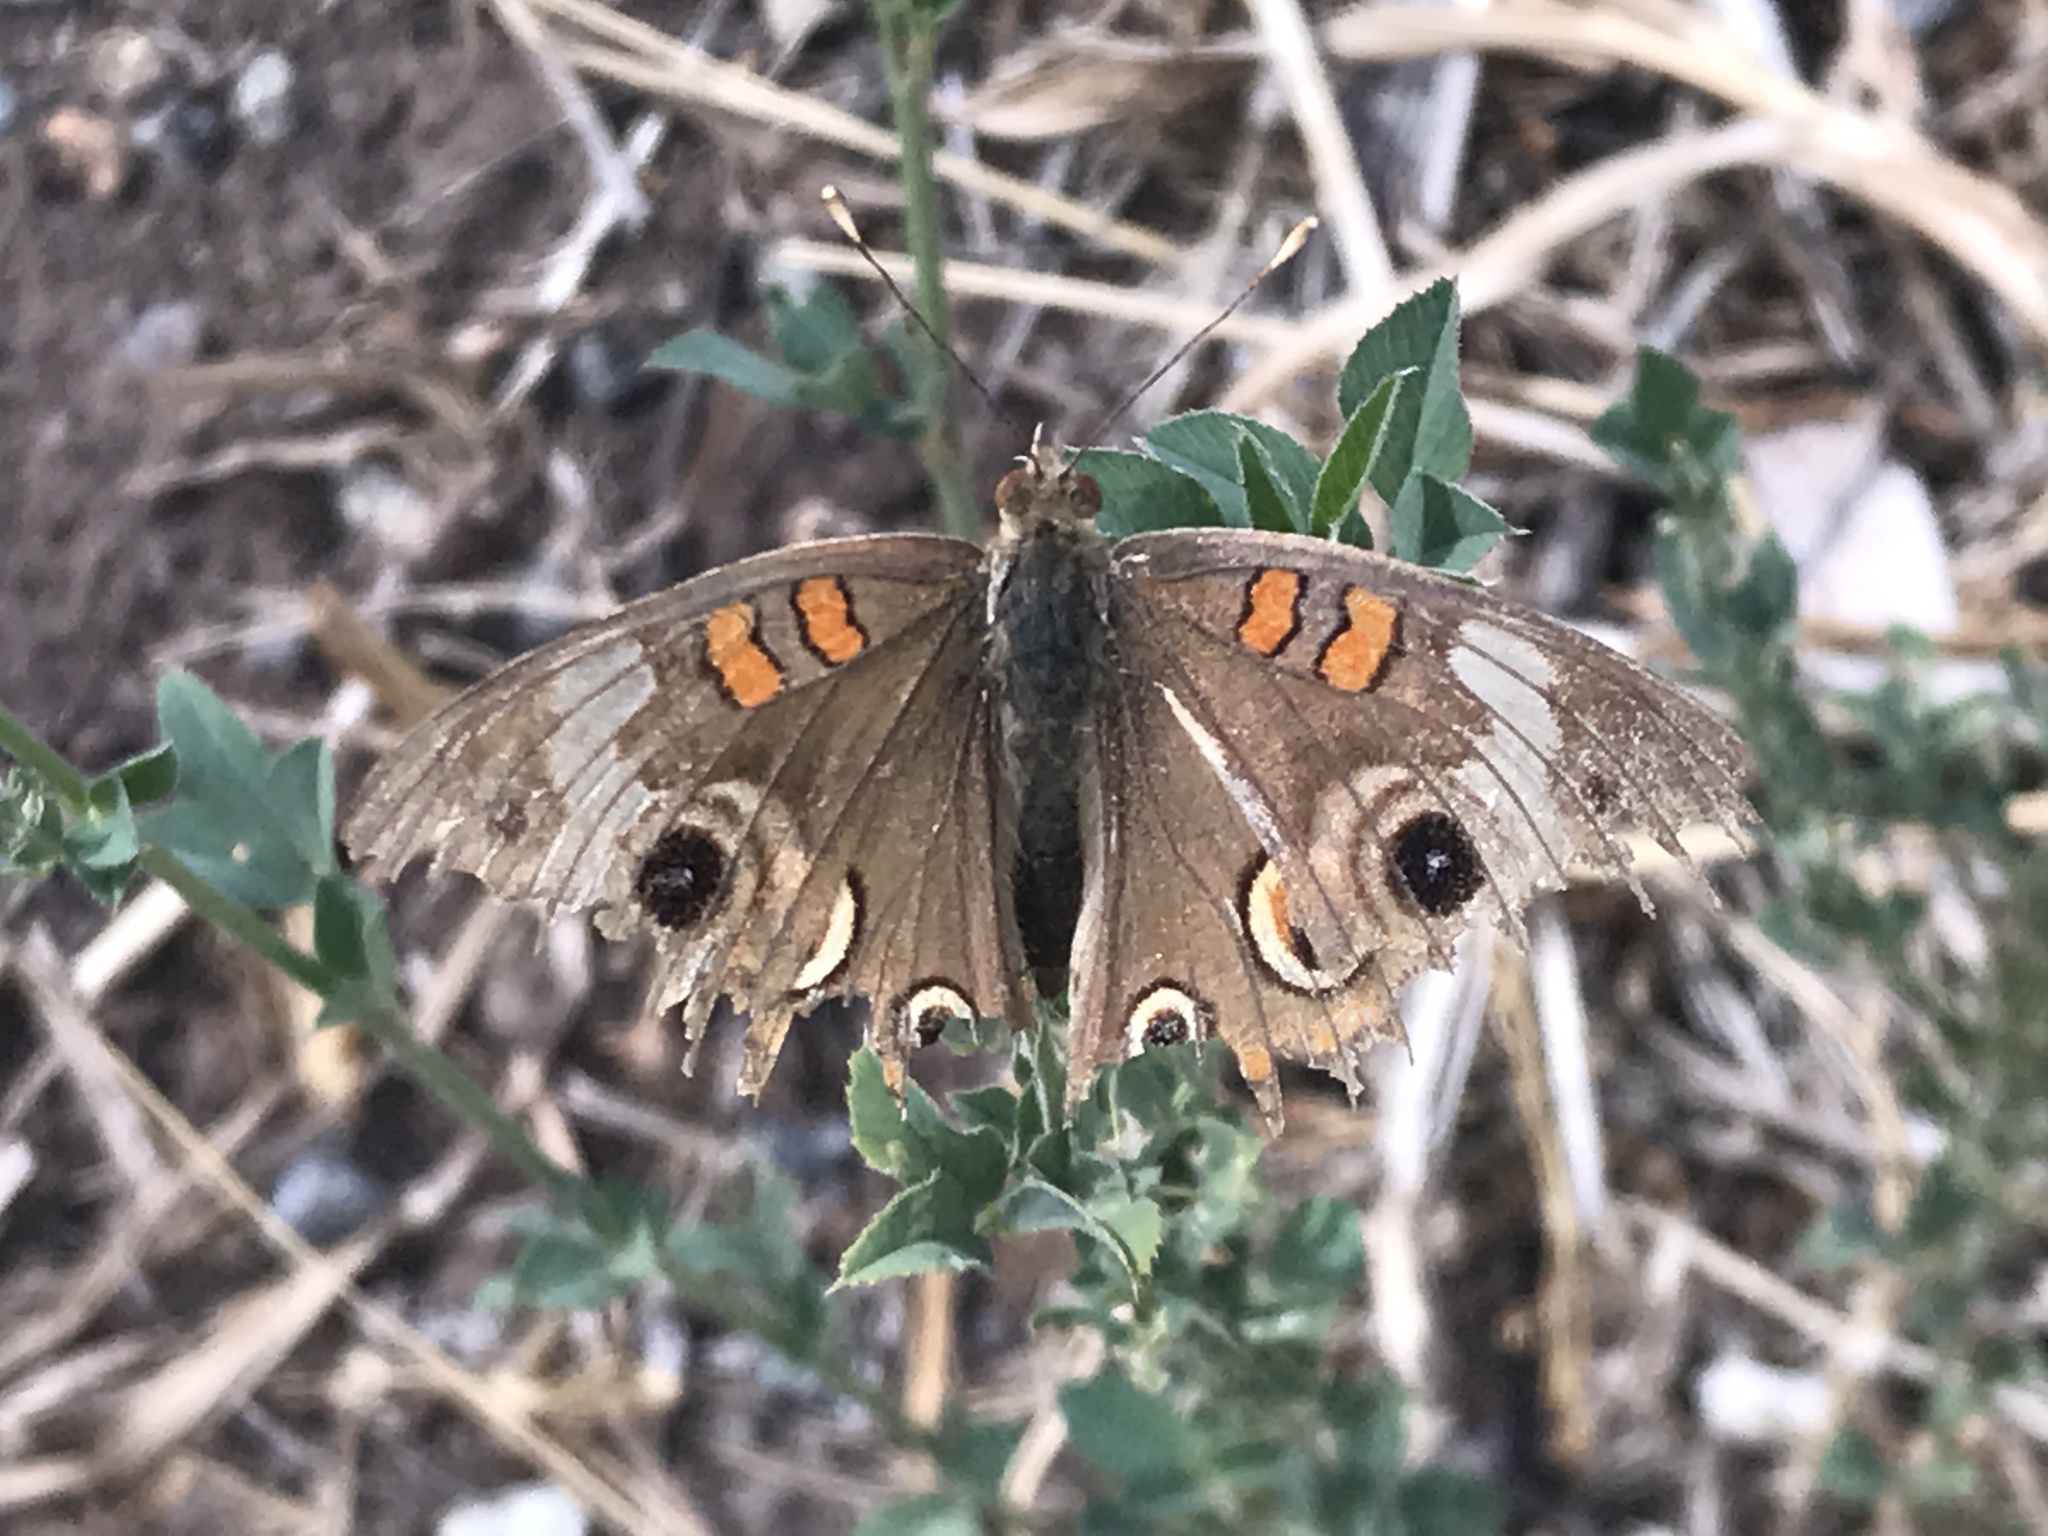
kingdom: Animalia
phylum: Arthropoda
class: Insecta
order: Lepidoptera
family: Nymphalidae
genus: Junonia
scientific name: Junonia grisea
